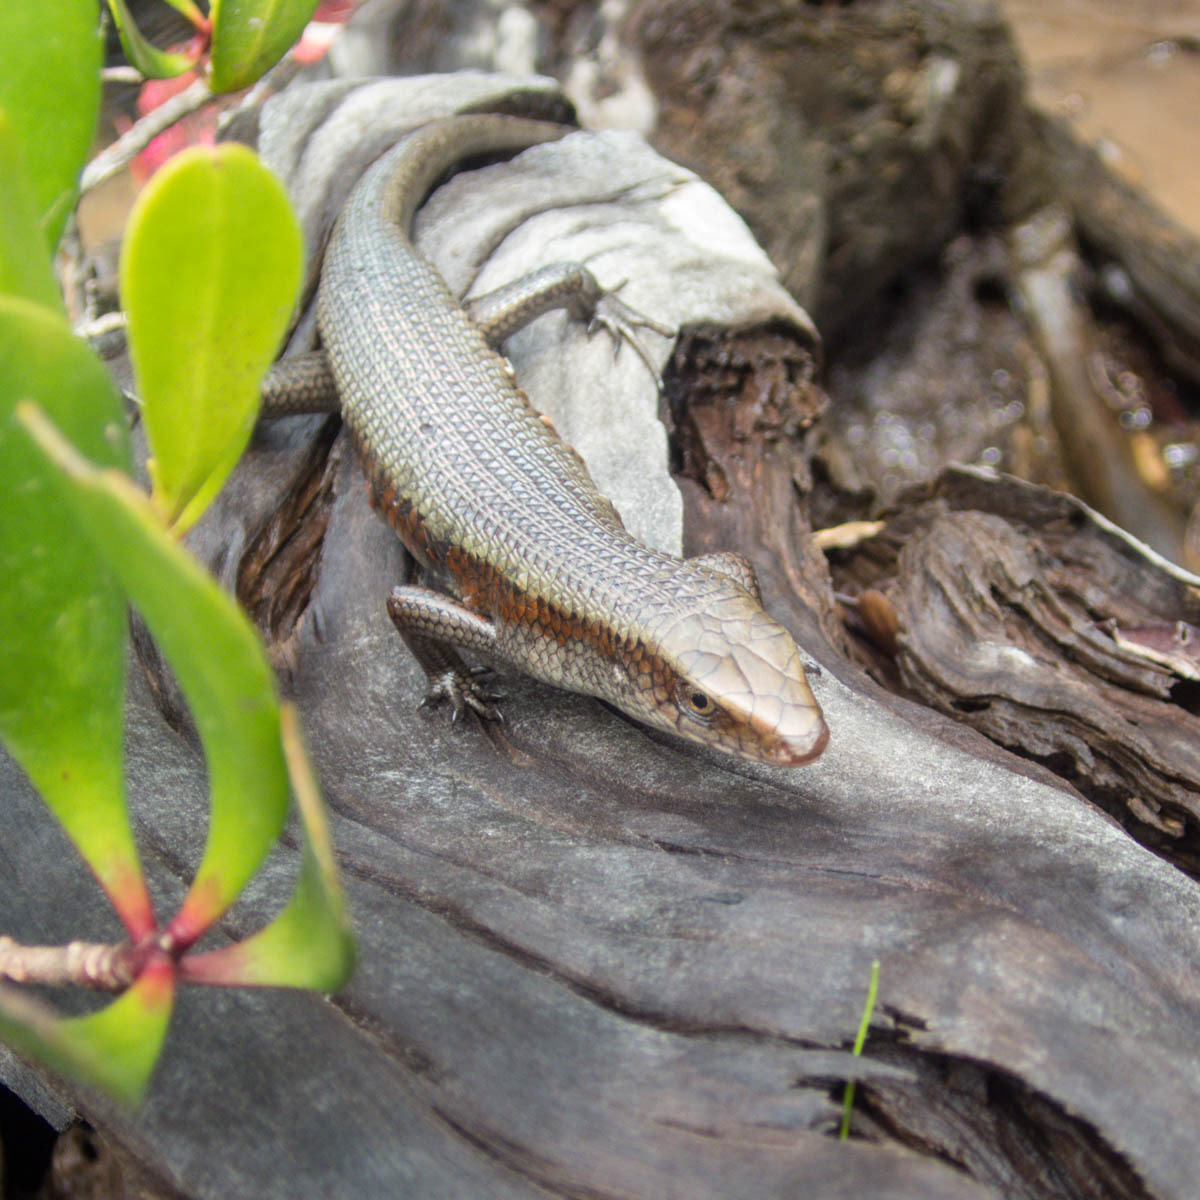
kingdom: Animalia
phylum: Chordata
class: Squamata
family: Scincidae
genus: Eutropis
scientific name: Eutropis multifasciata
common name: Common mabuya
